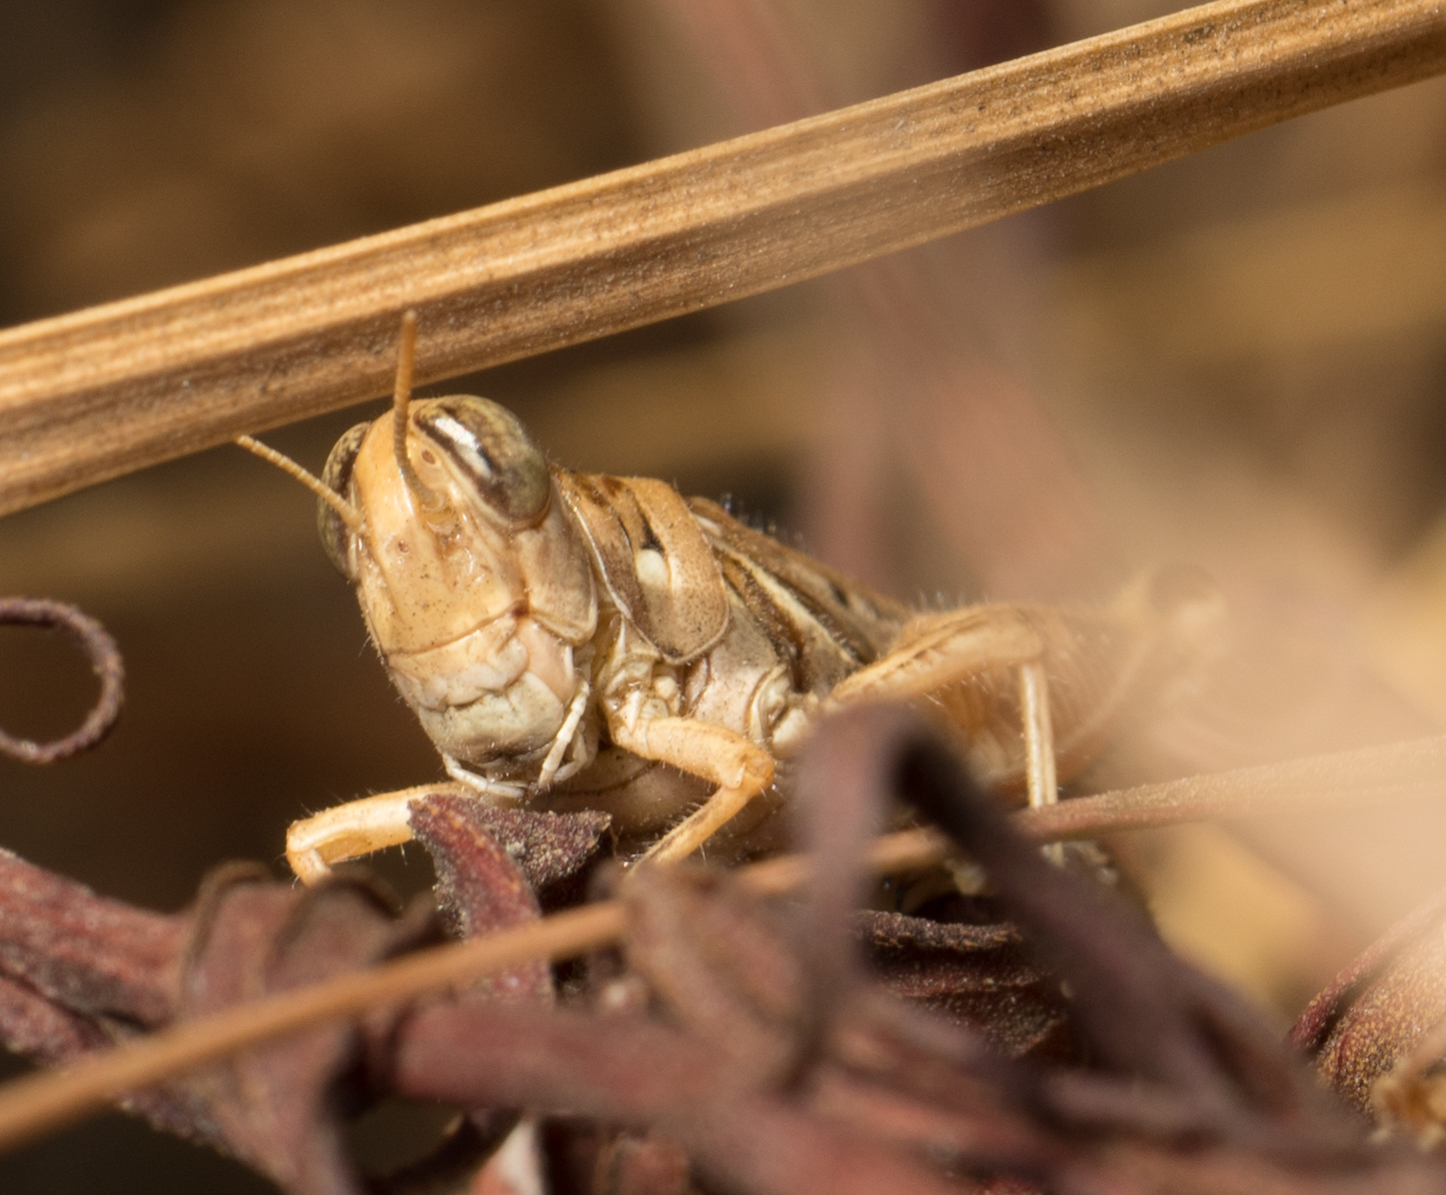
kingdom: Animalia
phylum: Arthropoda
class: Insecta
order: Orthoptera
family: Acrididae
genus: Melanoplus
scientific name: Melanoplus devastator
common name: Devastating grasshopper
